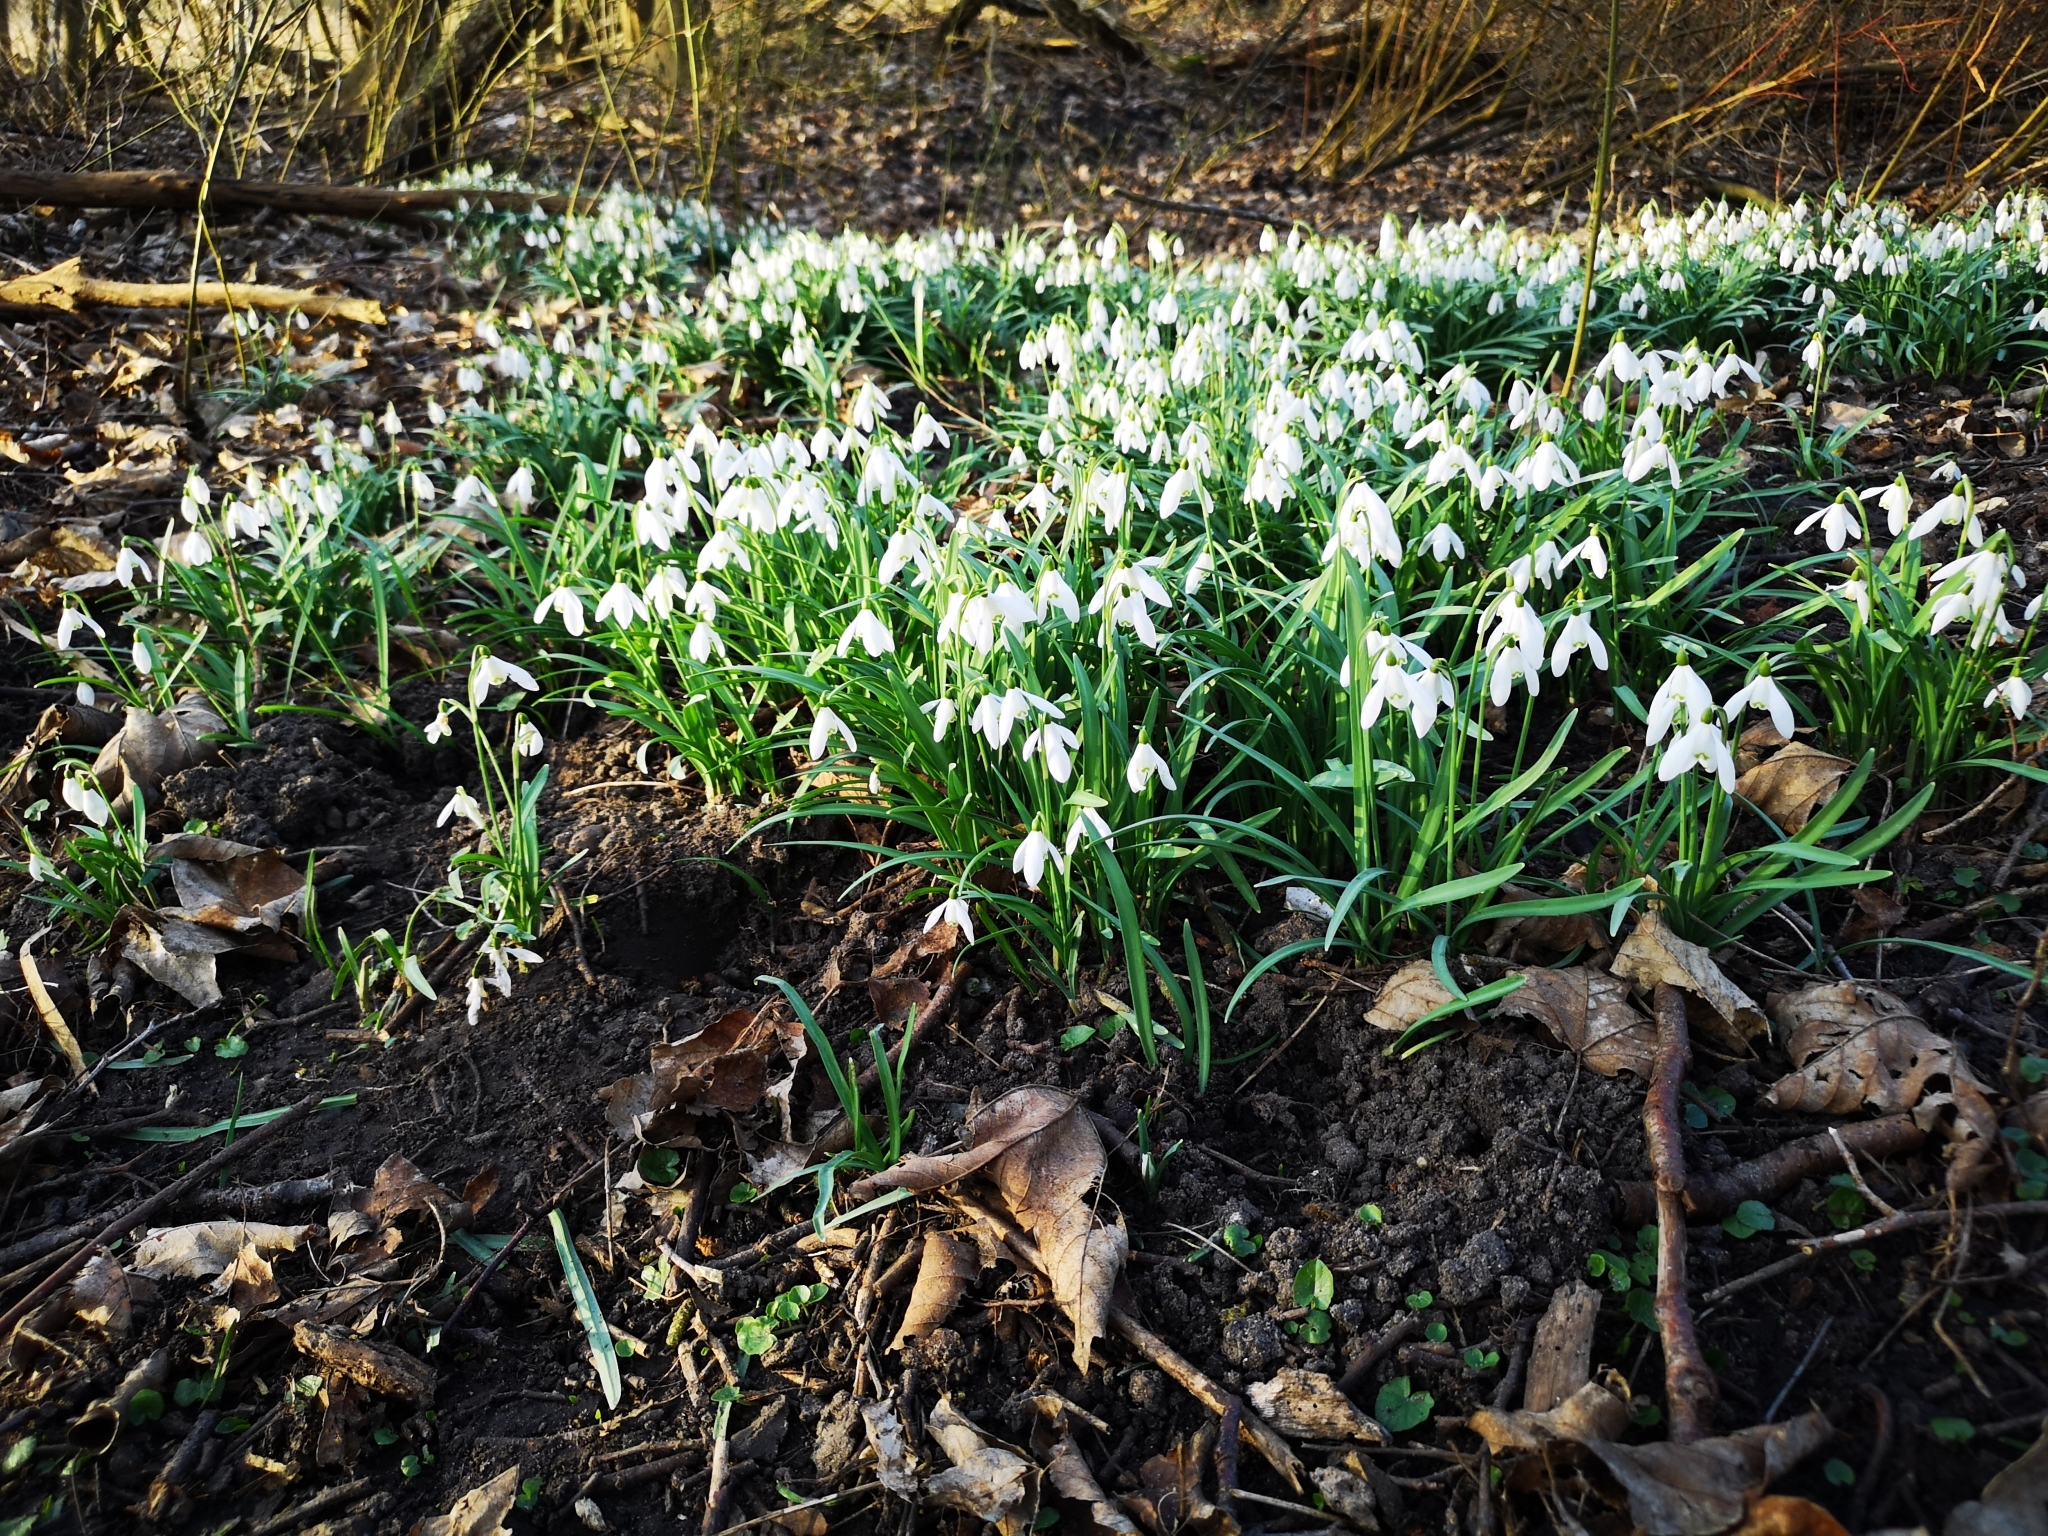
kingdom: Plantae
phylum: Tracheophyta
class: Liliopsida
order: Asparagales
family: Amaryllidaceae
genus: Galanthus
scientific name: Galanthus nivalis
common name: Snowdrop
